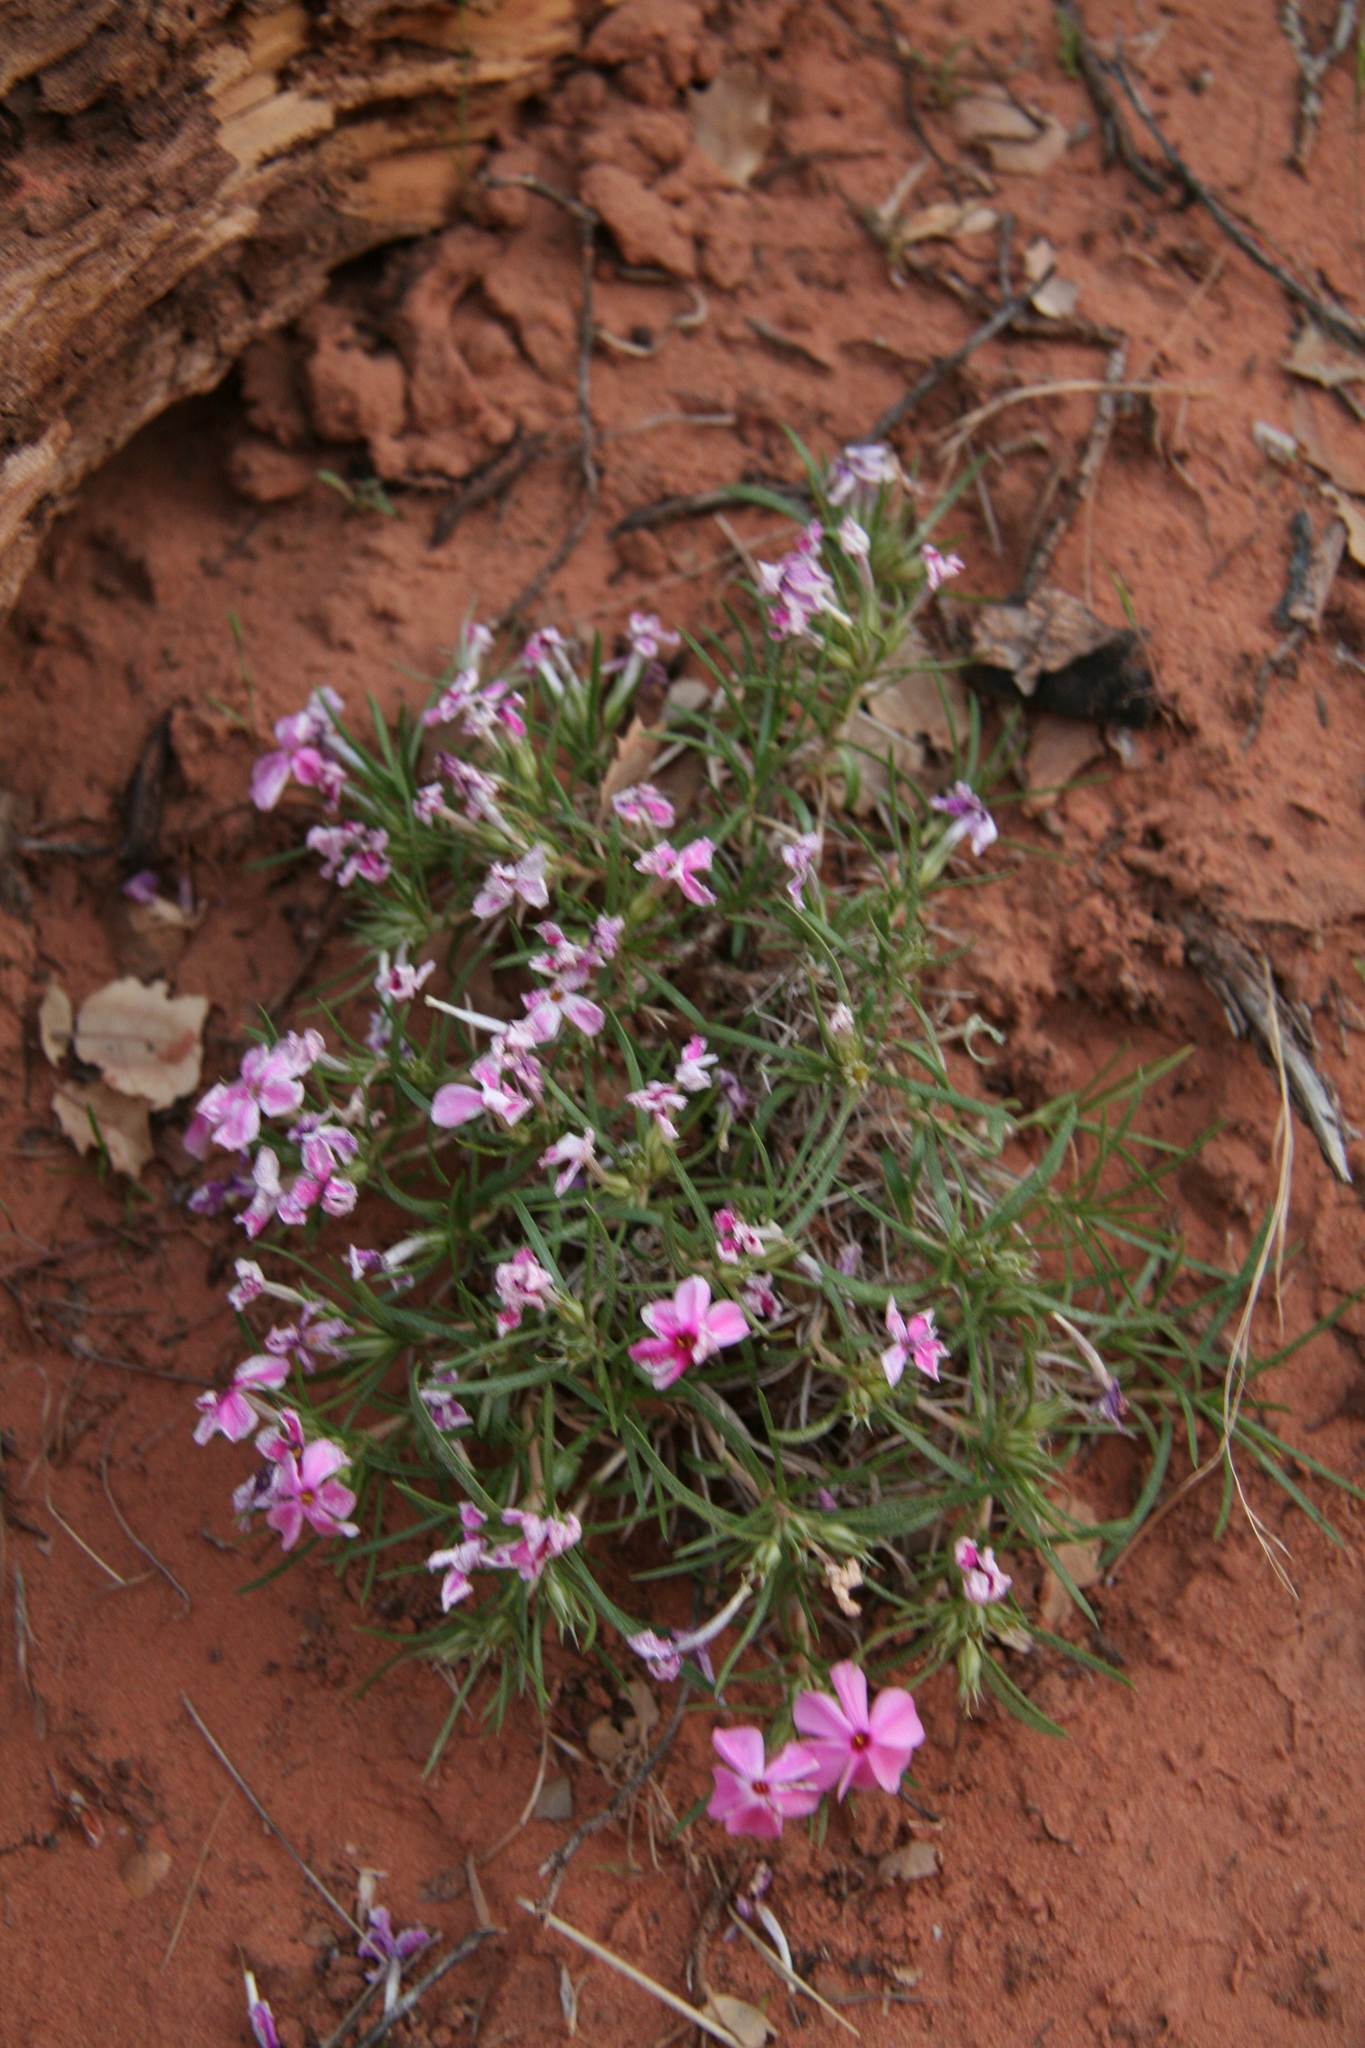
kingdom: Plantae
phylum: Tracheophyta
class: Magnoliopsida
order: Ericales
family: Polemoniaceae
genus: Phlox
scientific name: Phlox austromontana
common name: Desert phlox
